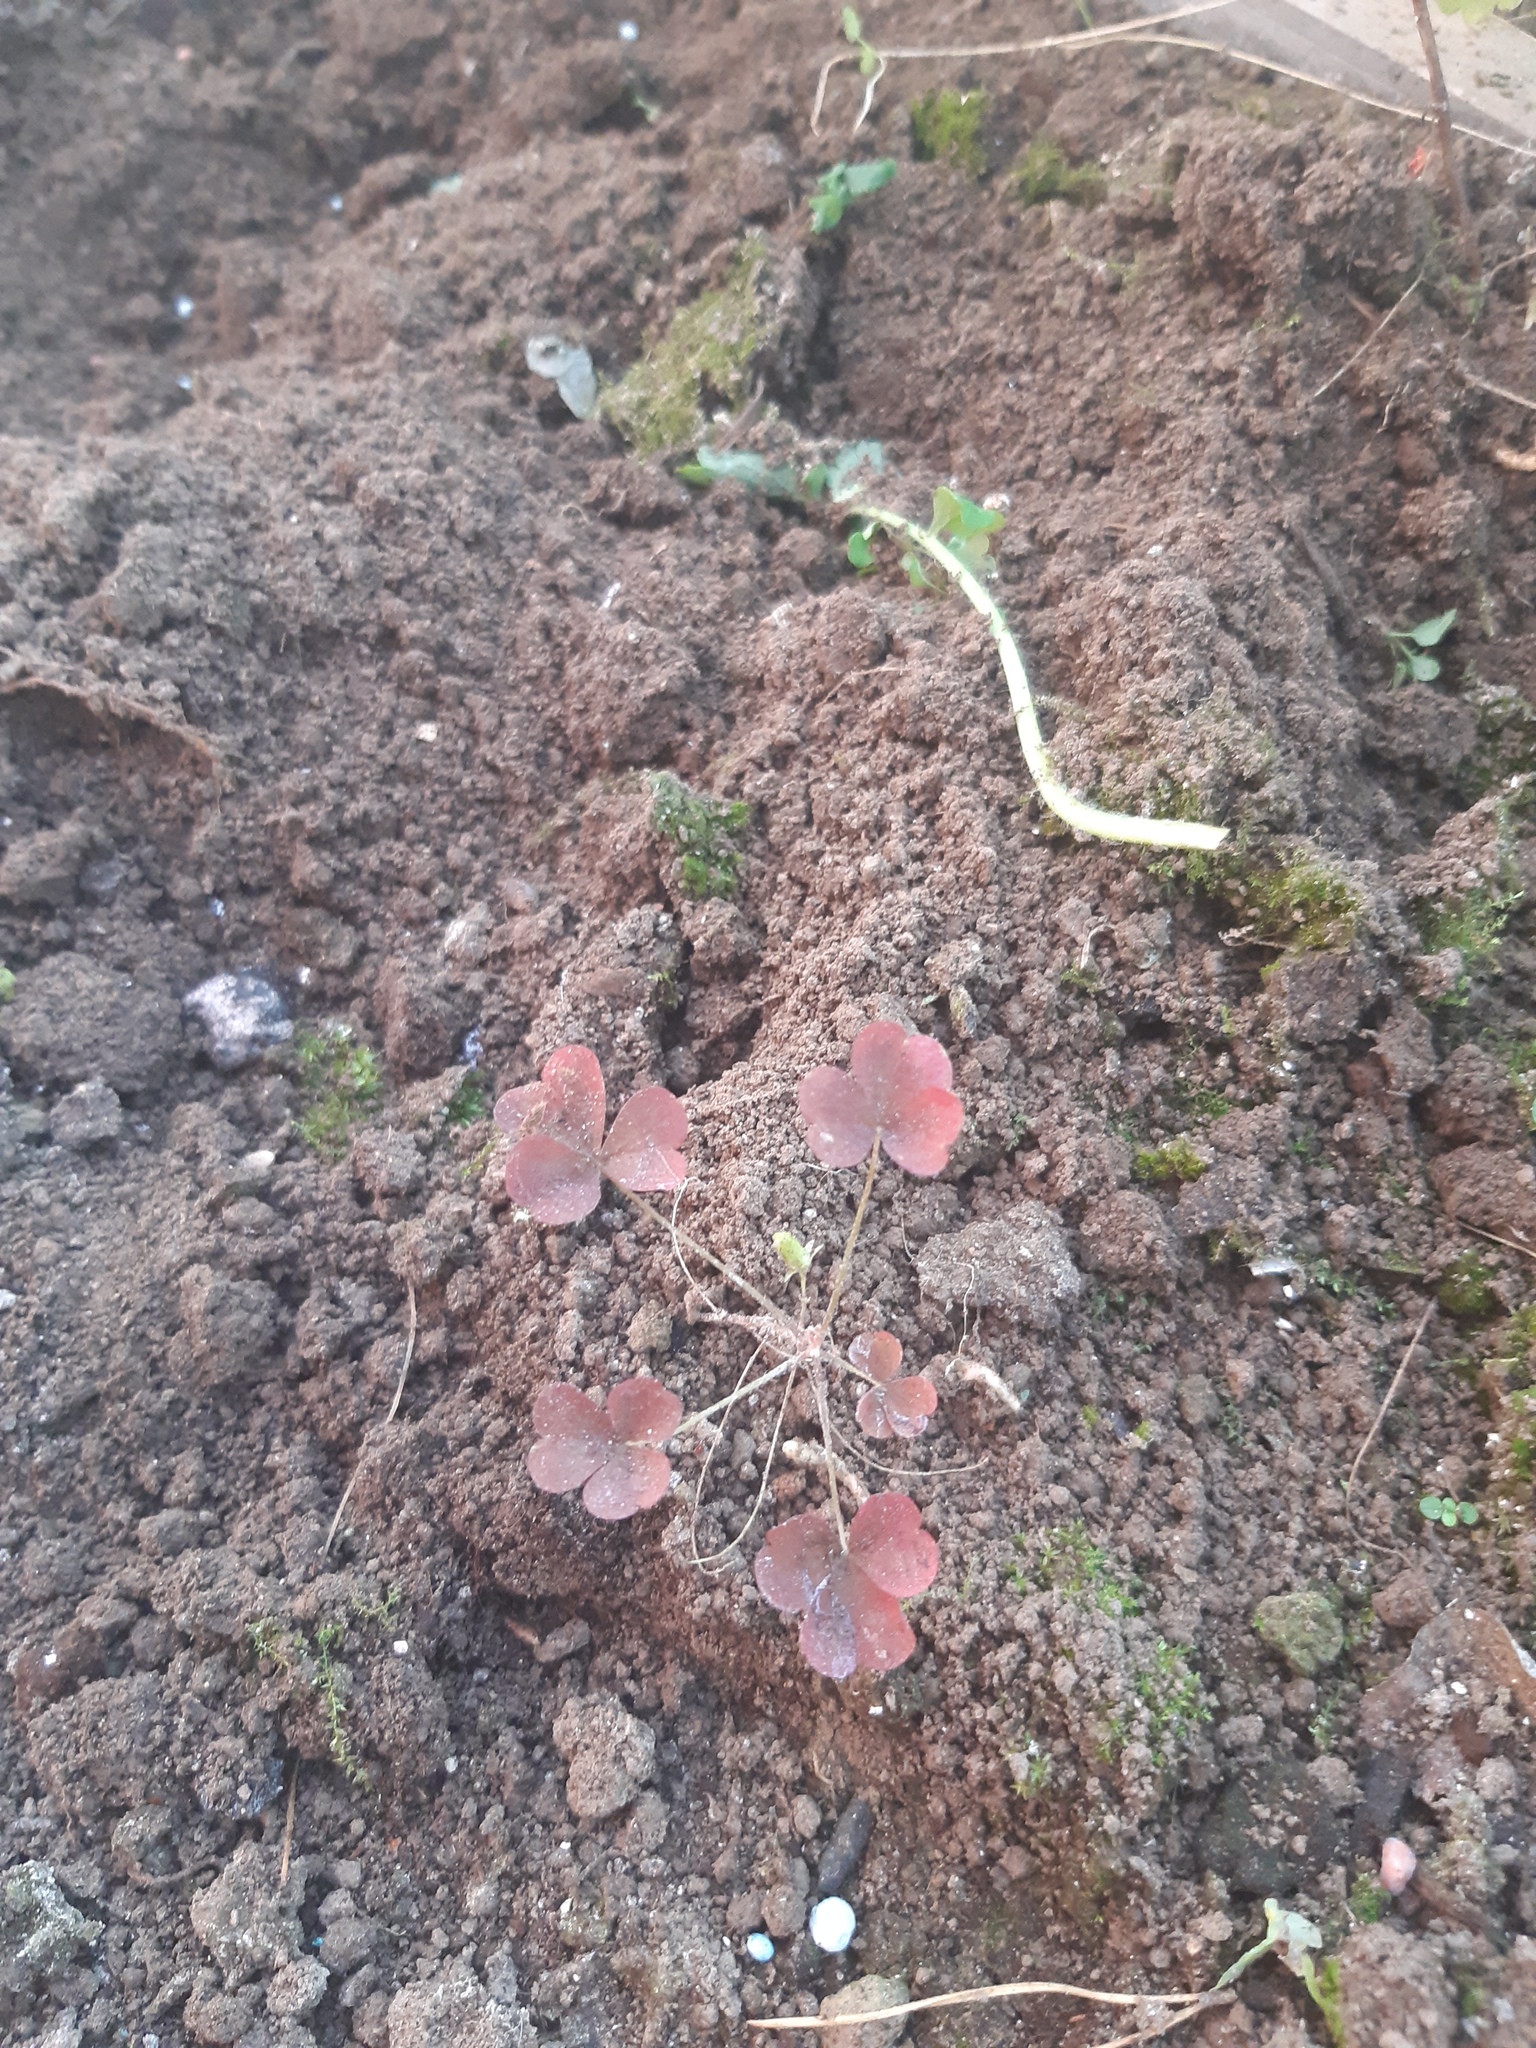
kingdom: Plantae
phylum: Tracheophyta
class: Magnoliopsida
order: Oxalidales
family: Oxalidaceae
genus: Oxalis
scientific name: Oxalis stricta
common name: Upright yellow-sorrel
